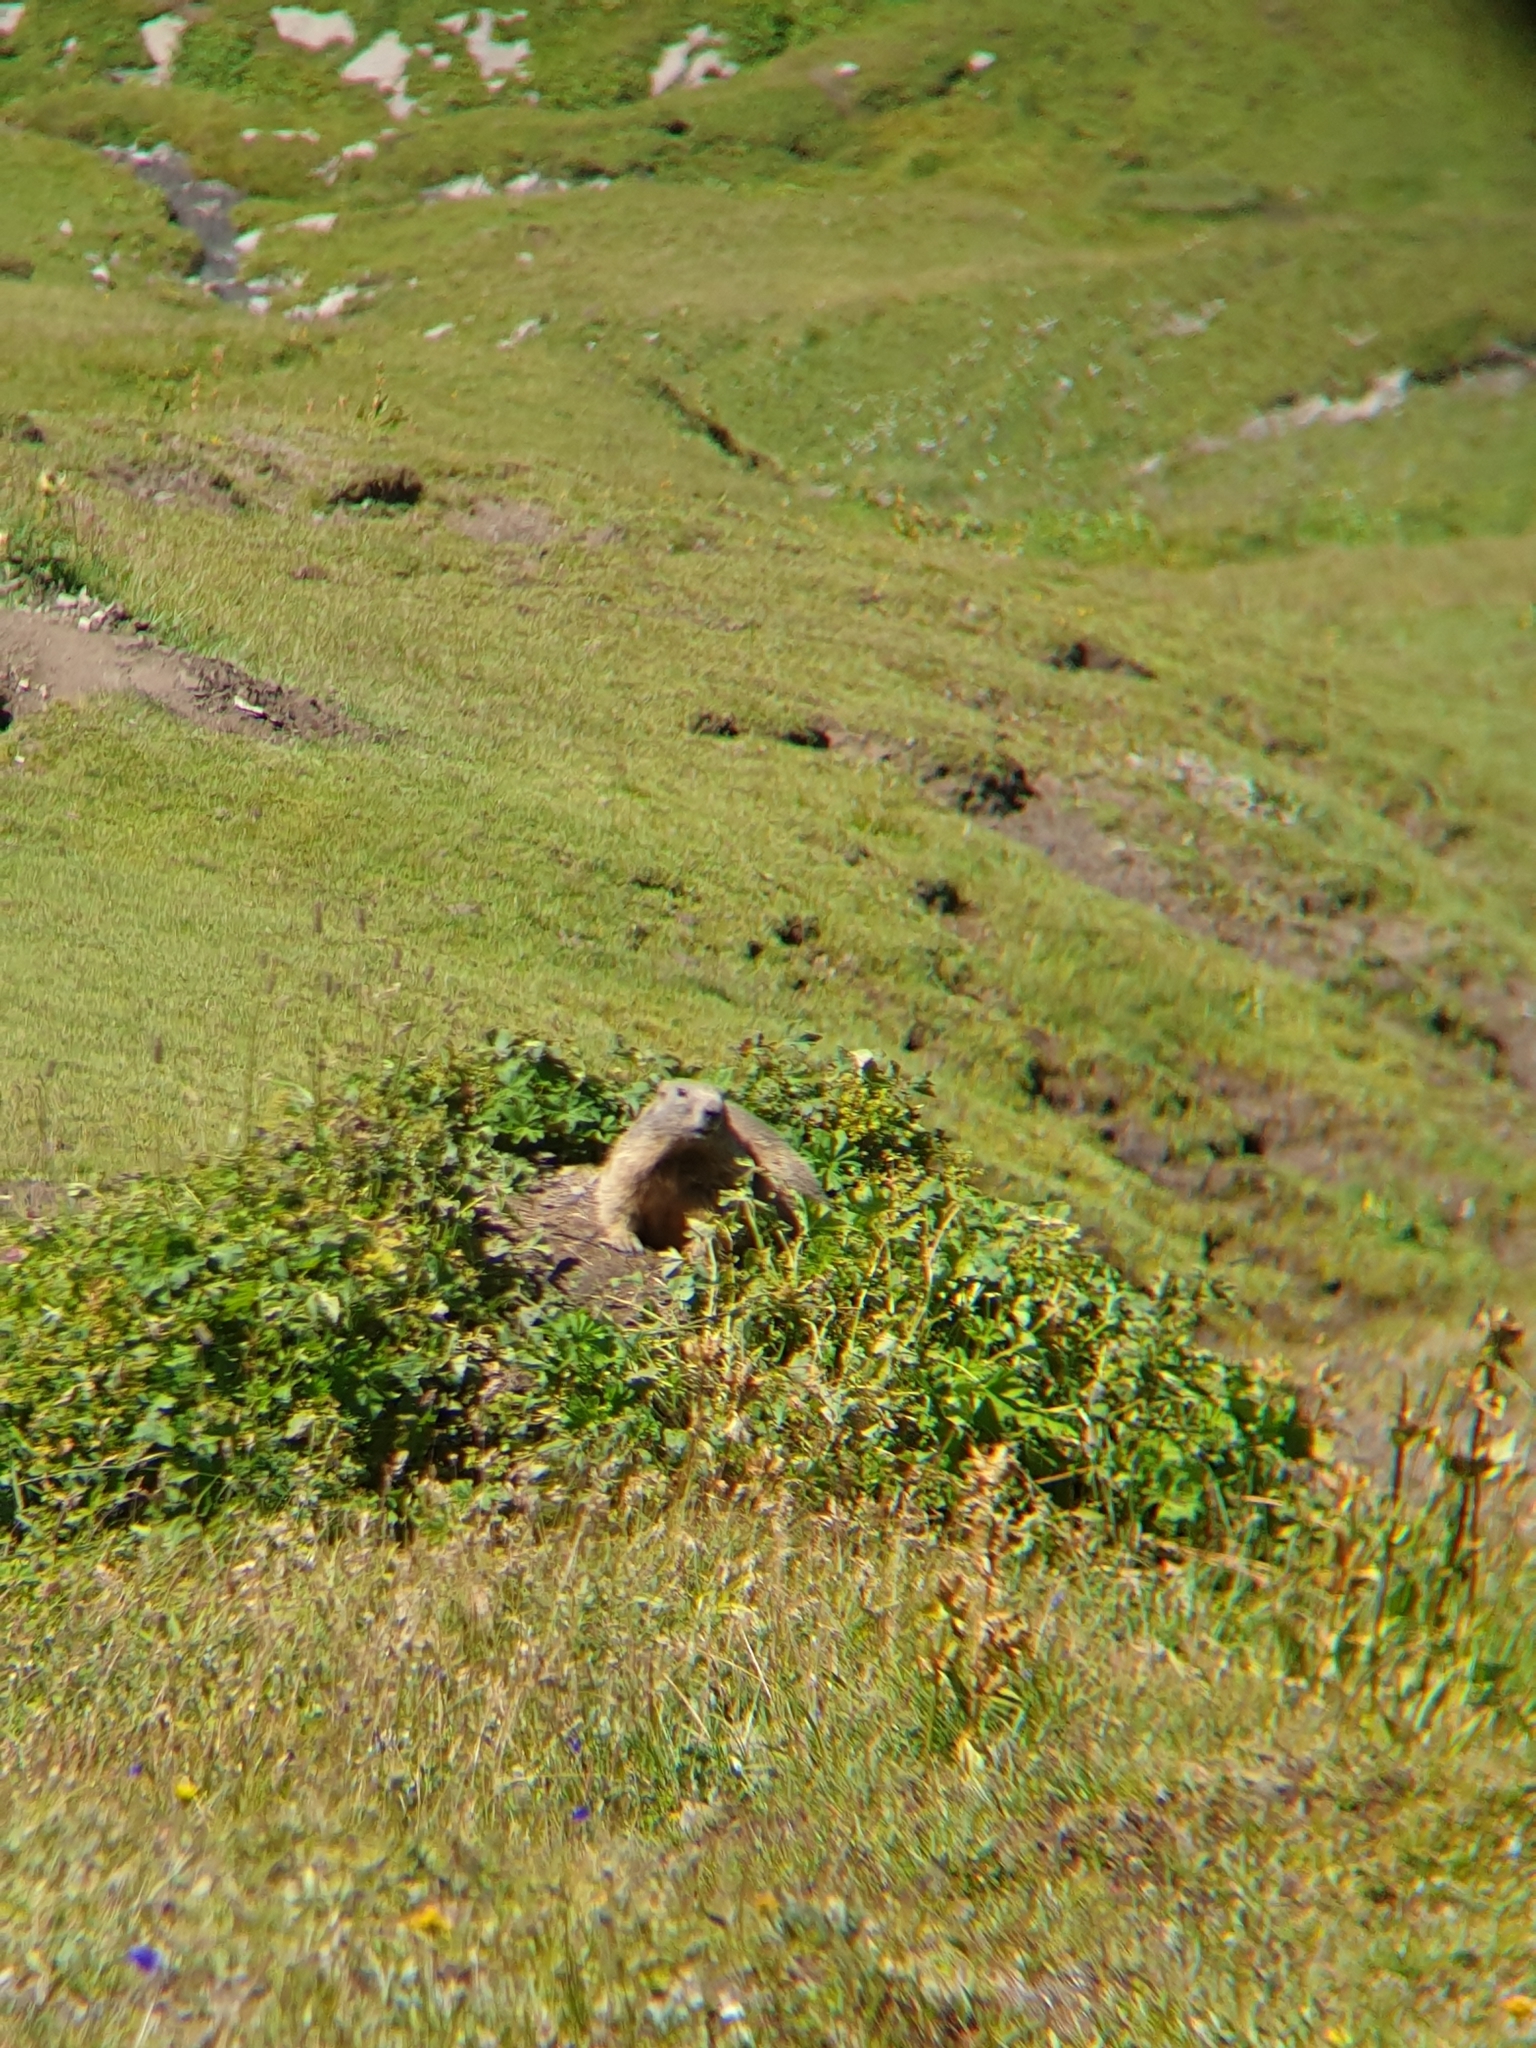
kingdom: Animalia
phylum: Chordata
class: Mammalia
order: Rodentia
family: Sciuridae
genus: Marmota
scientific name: Marmota marmota
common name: Alpine marmot
